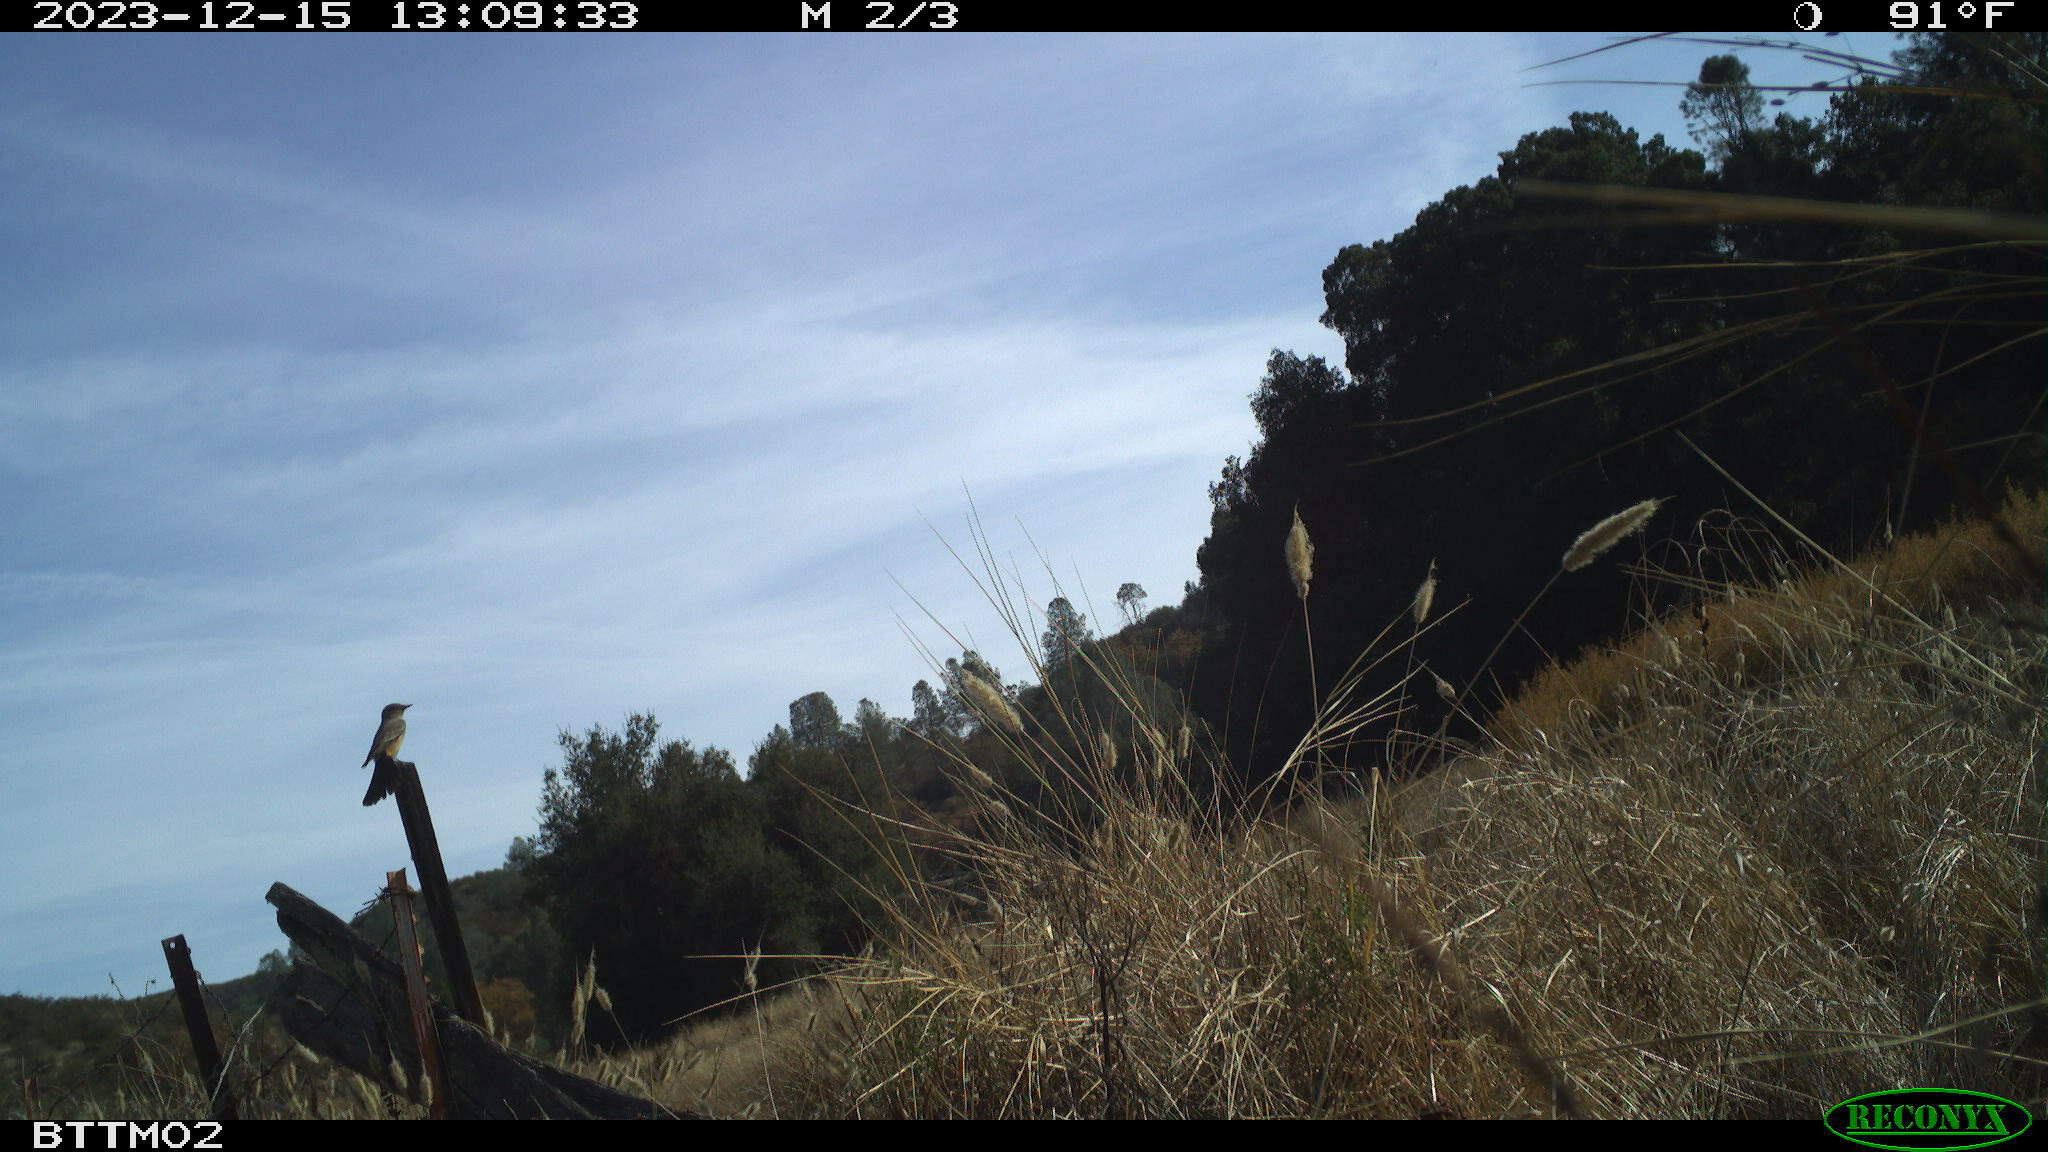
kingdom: Animalia
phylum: Chordata
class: Aves
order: Passeriformes
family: Tyrannidae
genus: Sayornis
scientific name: Sayornis saya
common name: Say's phoebe
